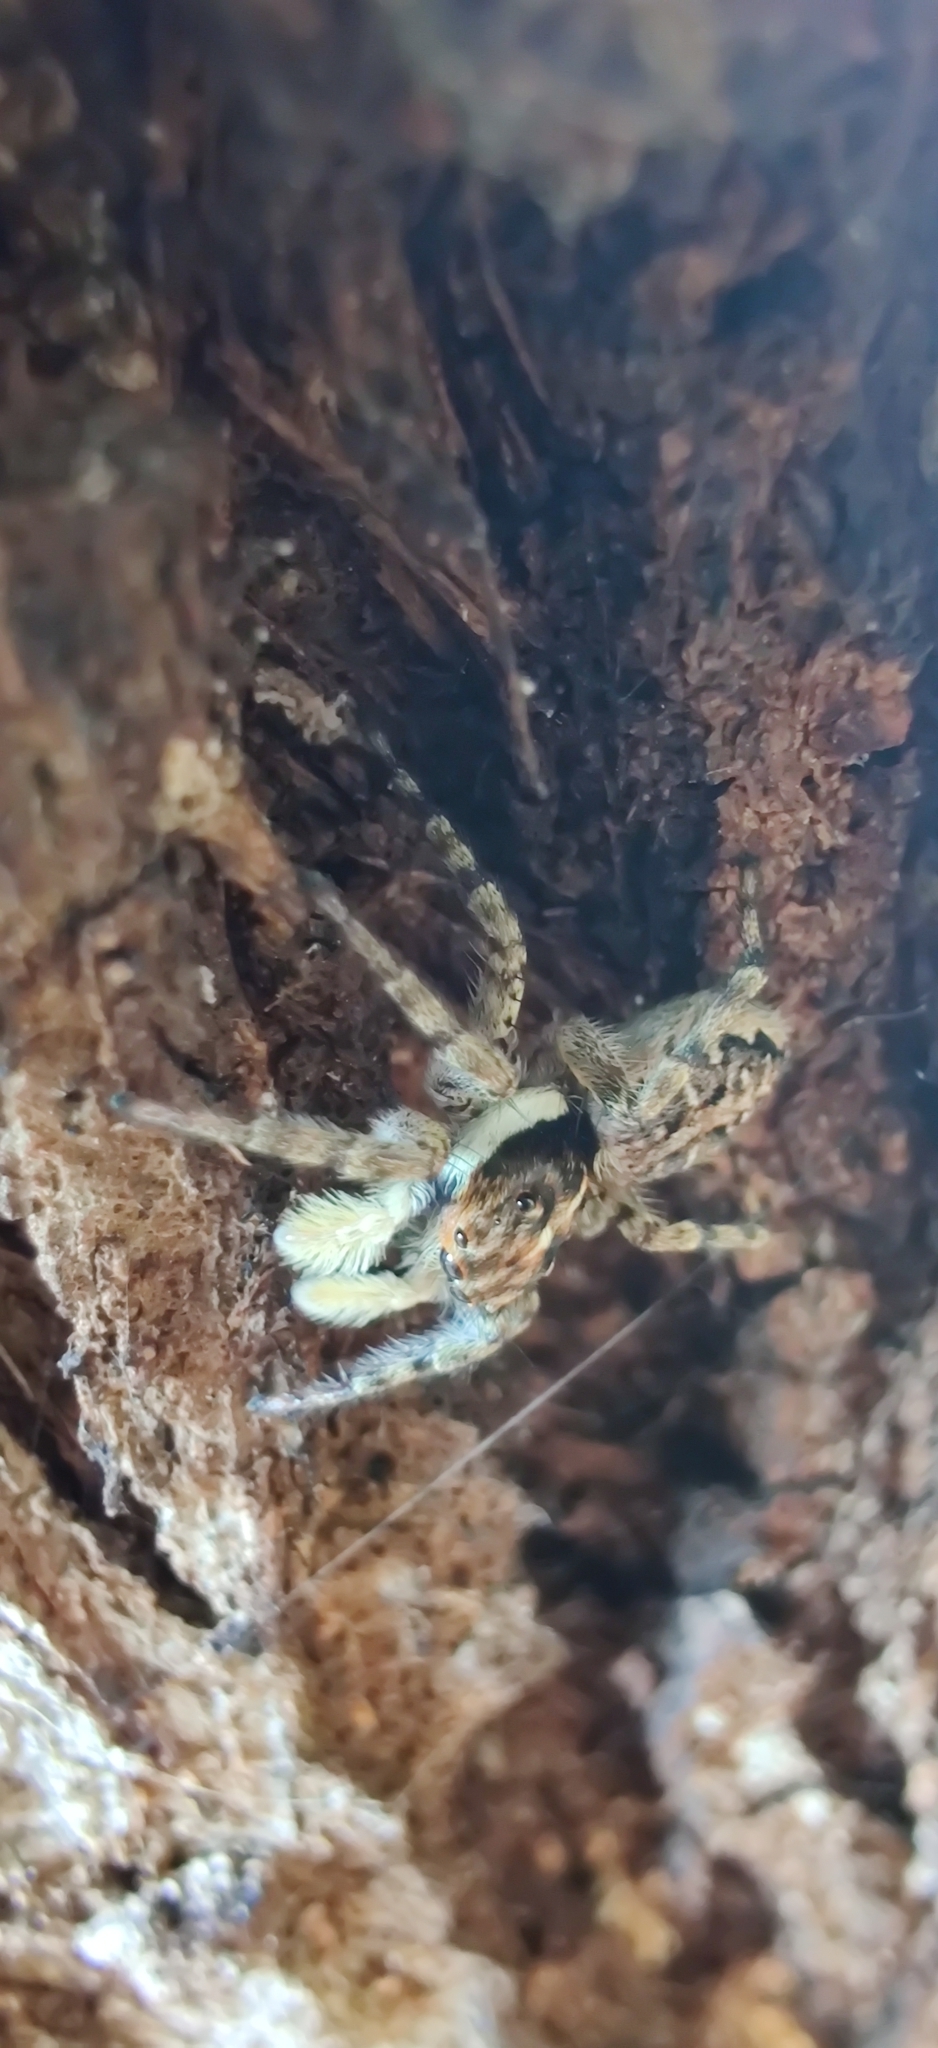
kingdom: Animalia
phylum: Arthropoda
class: Arachnida
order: Araneae
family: Salticidae
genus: Menemerus
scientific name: Menemerus semilimbatus
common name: Jumping spider
